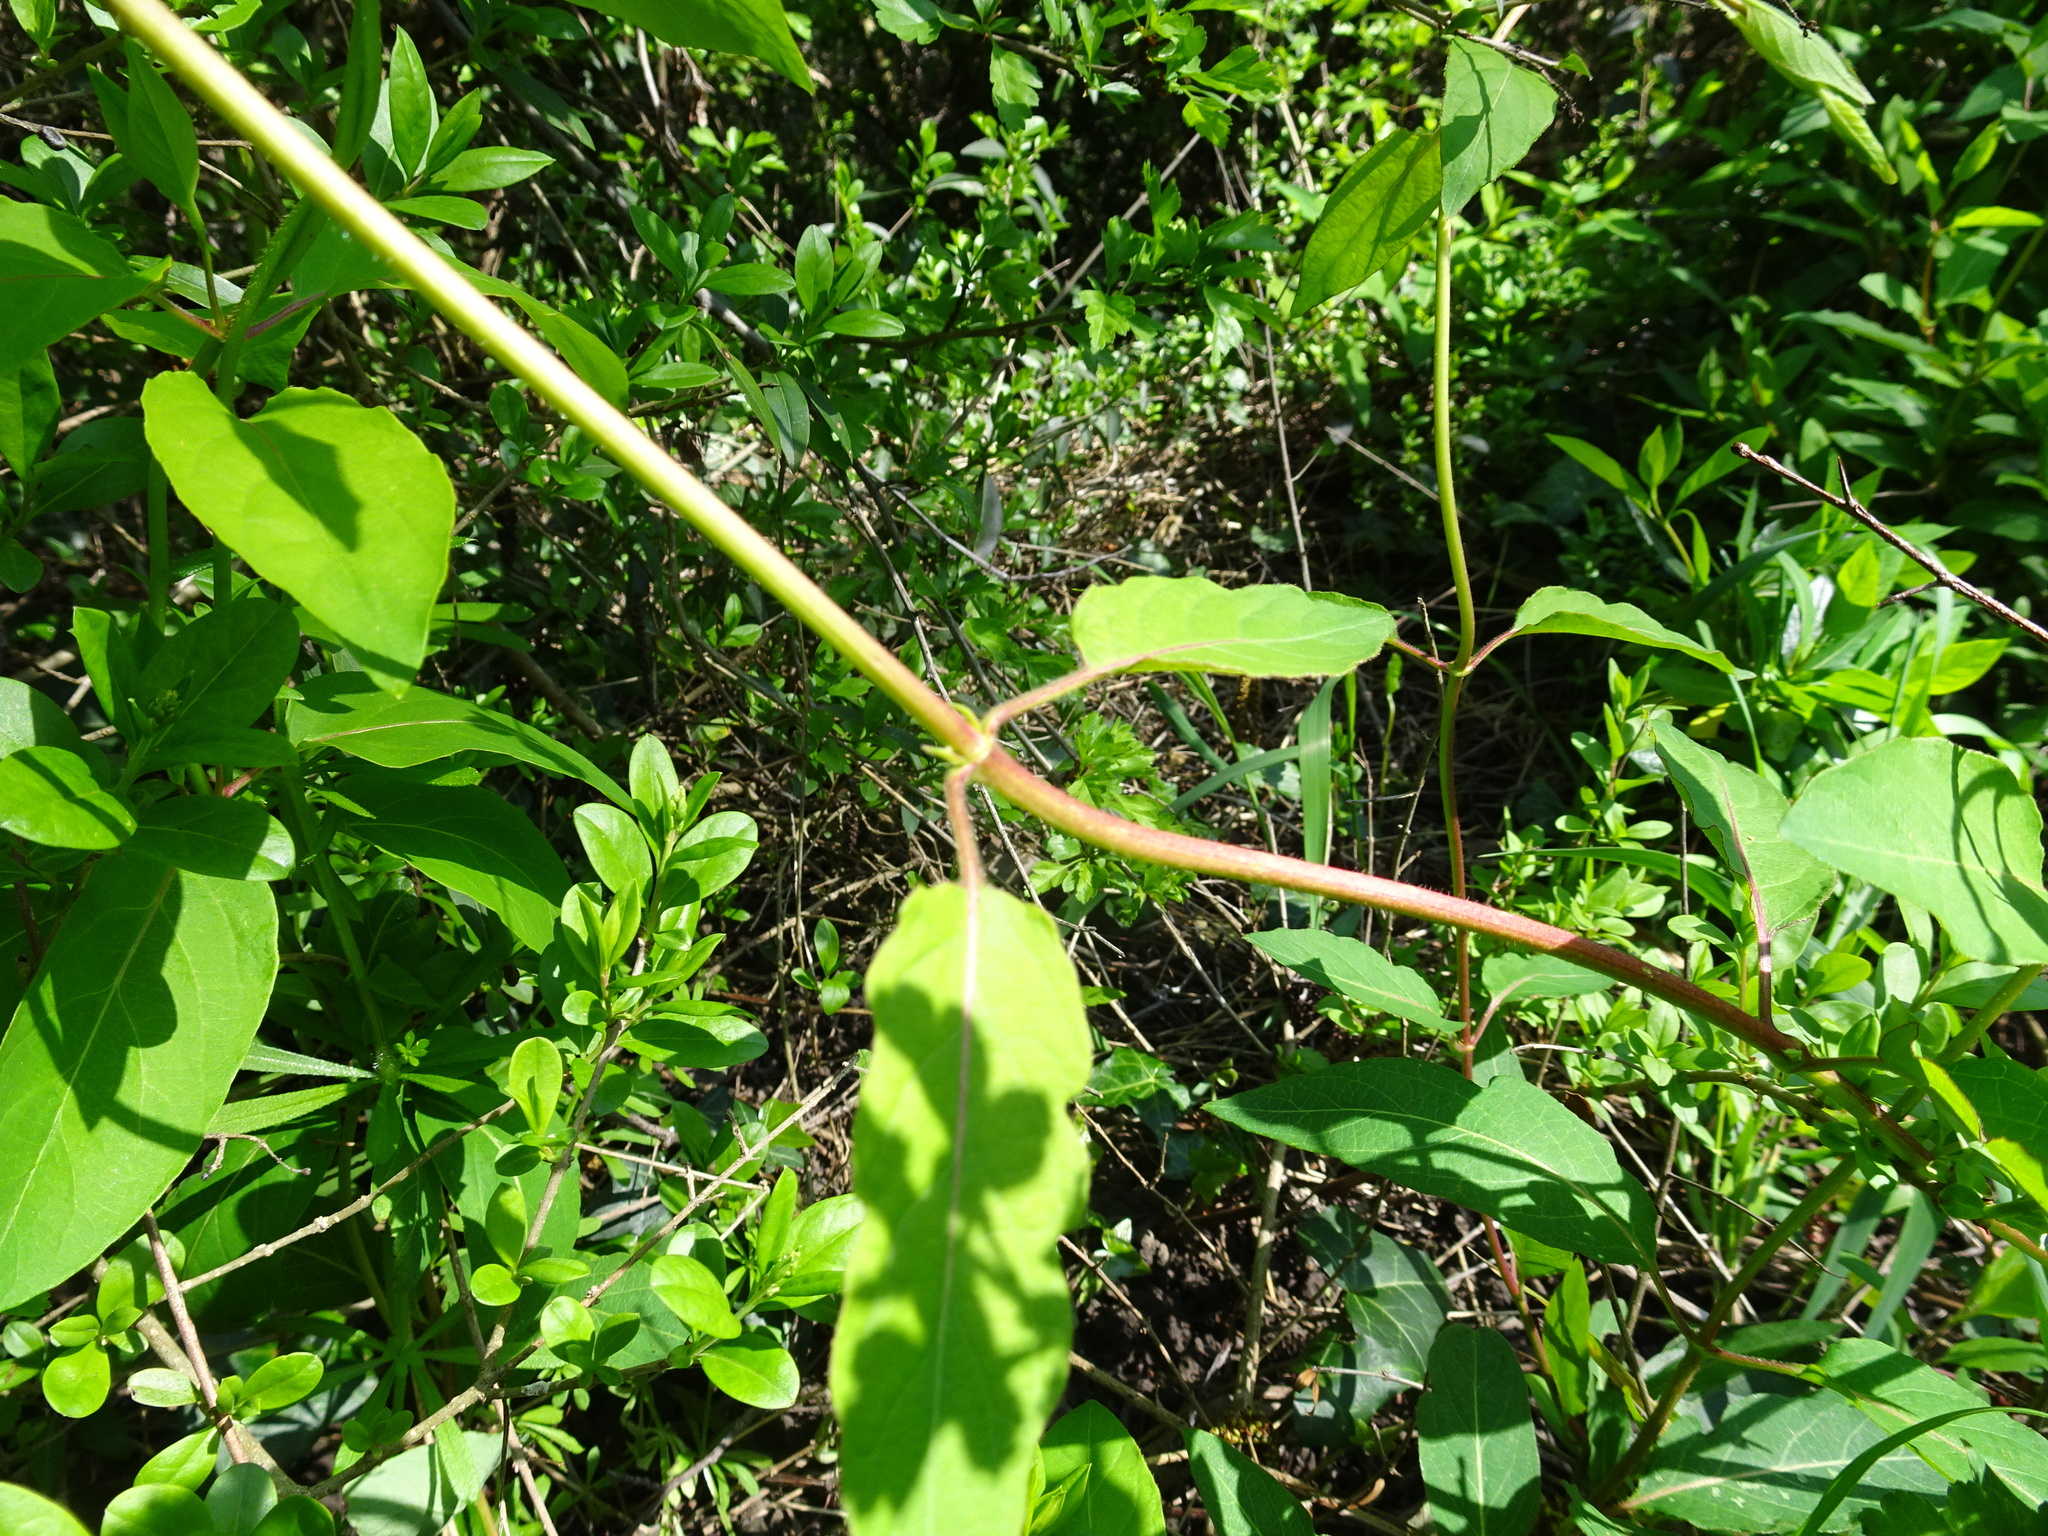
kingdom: Plantae
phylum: Tracheophyta
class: Magnoliopsida
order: Dipsacales
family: Caprifoliaceae
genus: Lonicera
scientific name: Lonicera japonica
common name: Japanese honeysuckle
